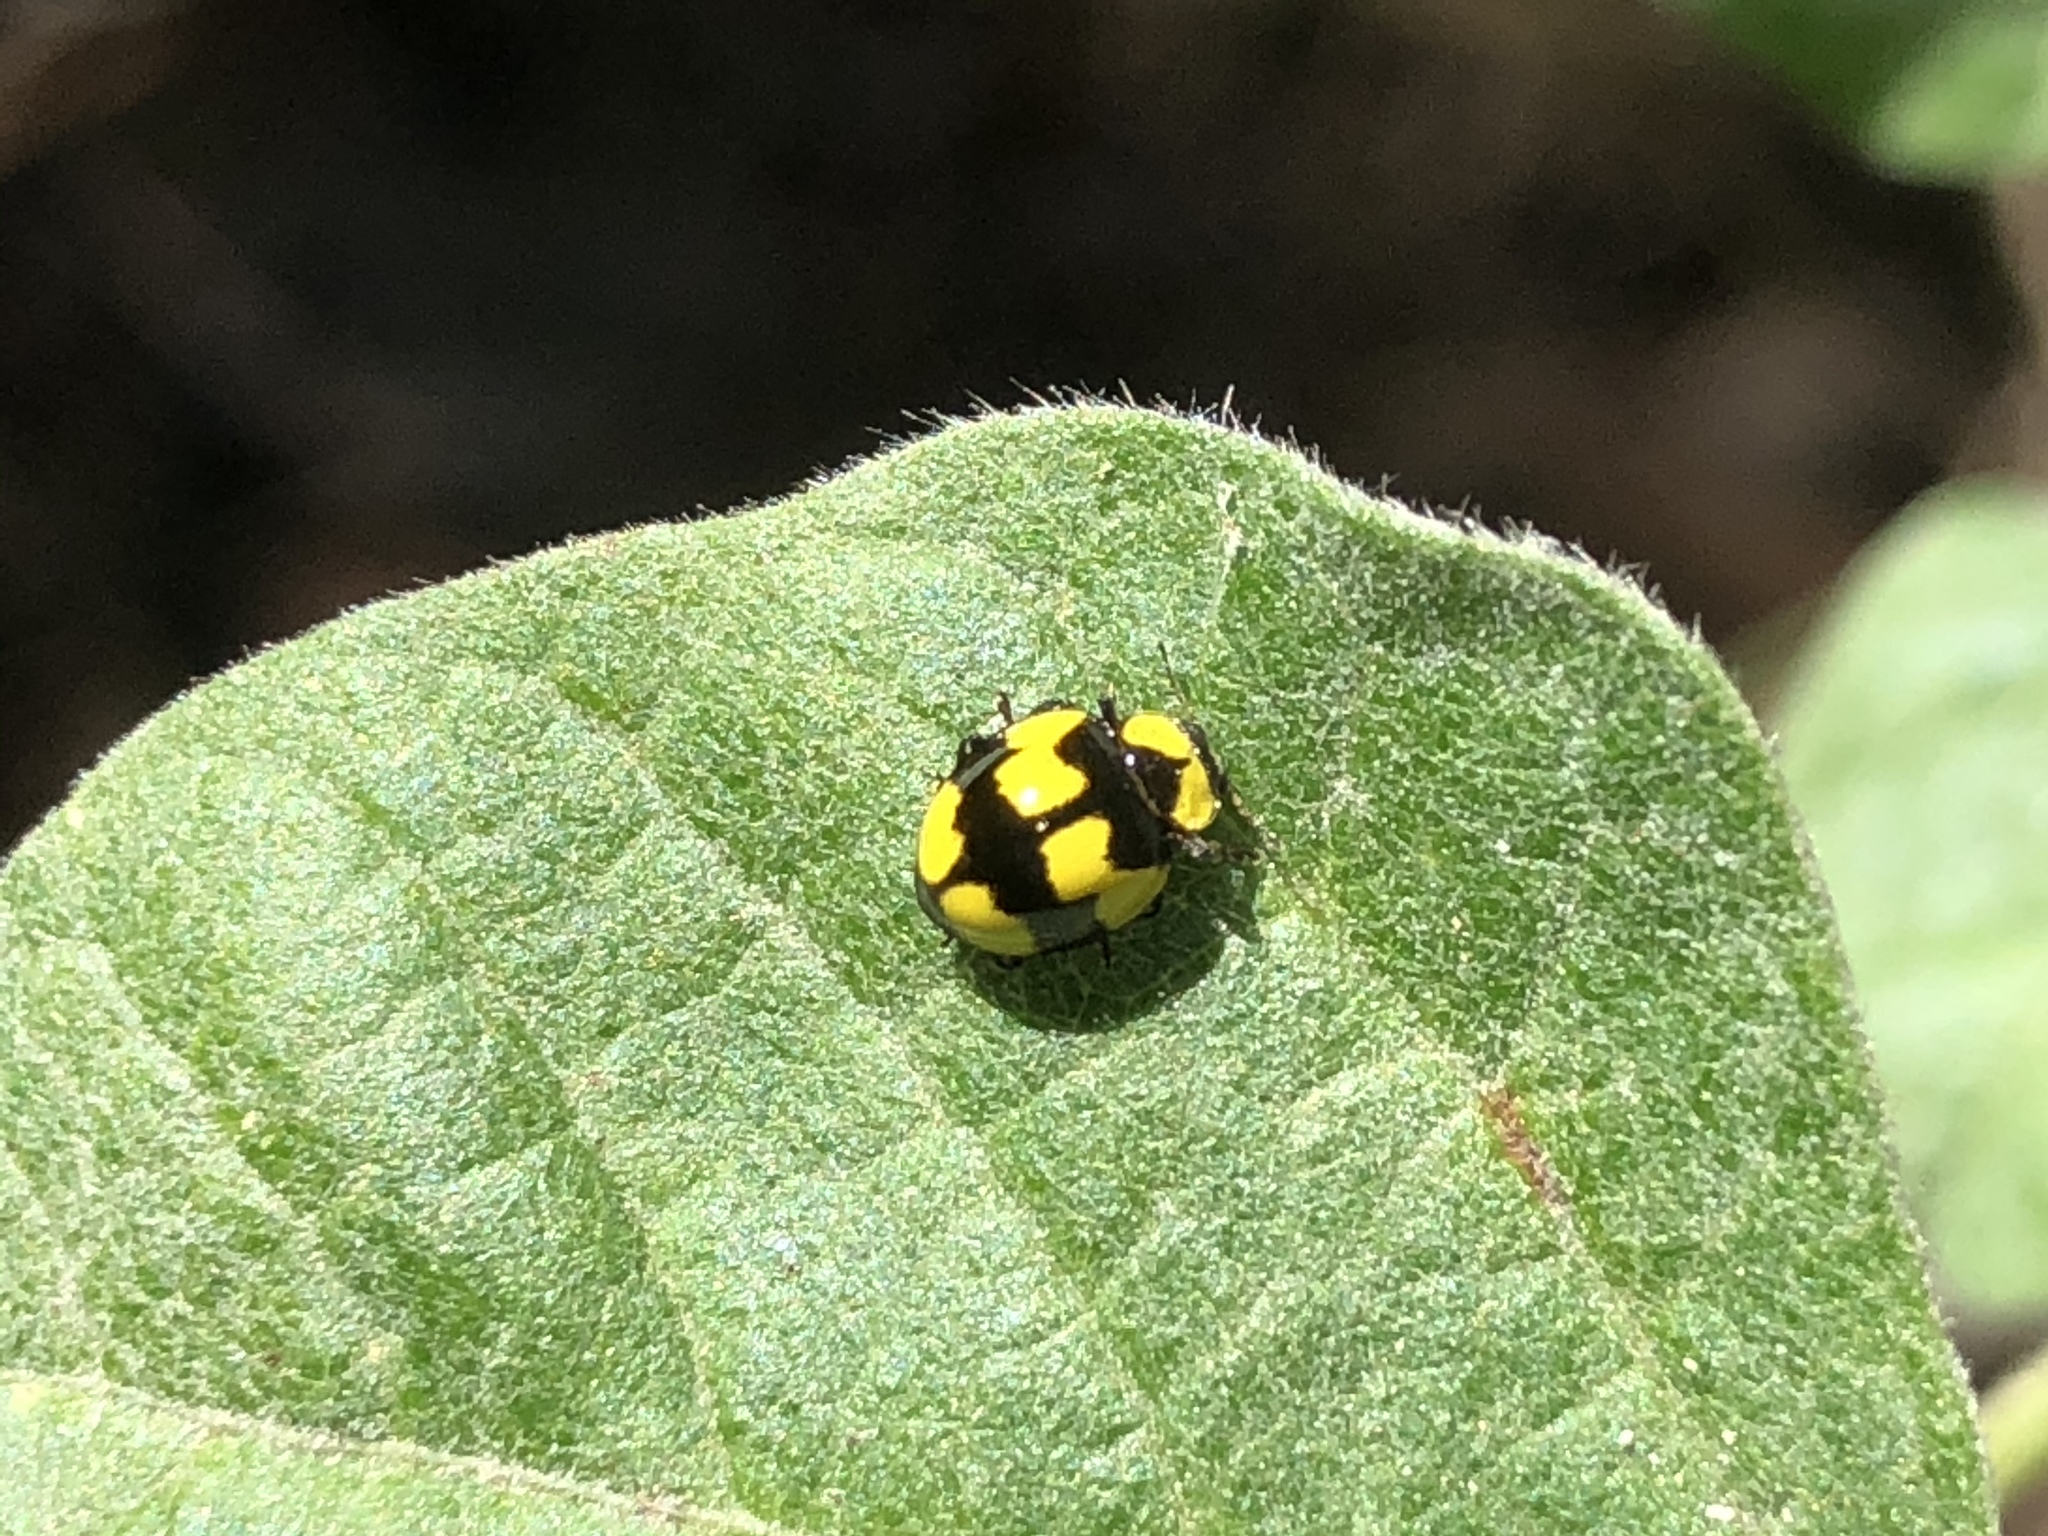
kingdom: Animalia
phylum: Arthropoda
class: Insecta
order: Coleoptera
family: Coccinellidae
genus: Illeis
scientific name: Illeis galbula
